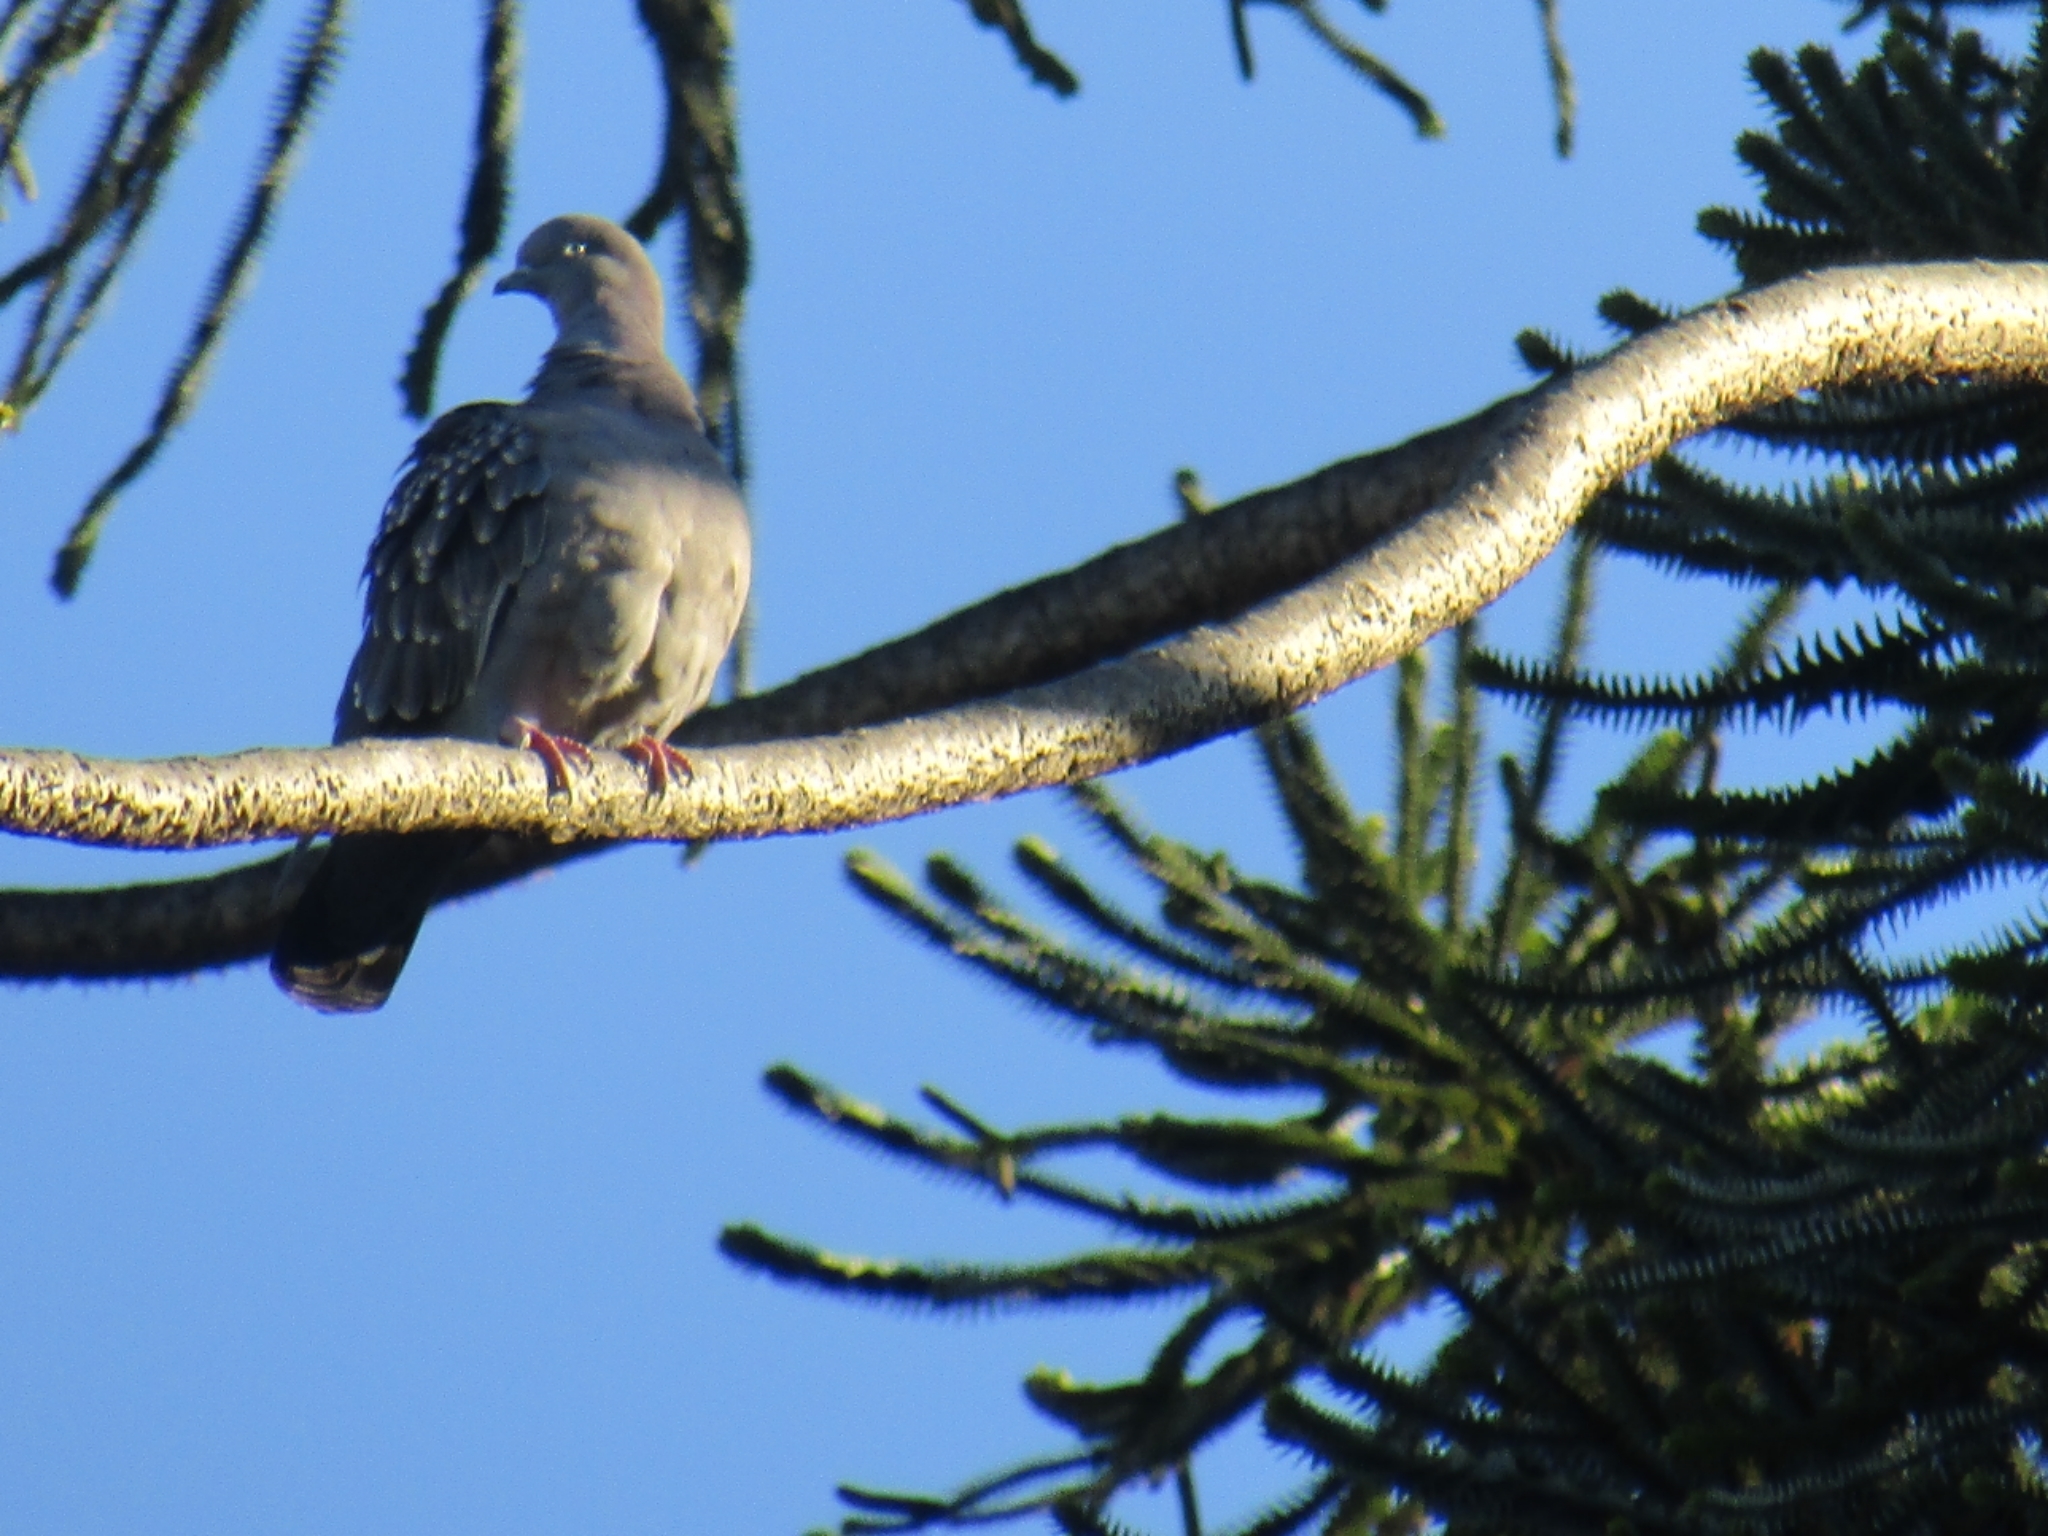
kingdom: Animalia
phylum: Chordata
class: Aves
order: Columbiformes
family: Columbidae
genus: Patagioenas
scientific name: Patagioenas maculosa
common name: Spot-winged pigeon
